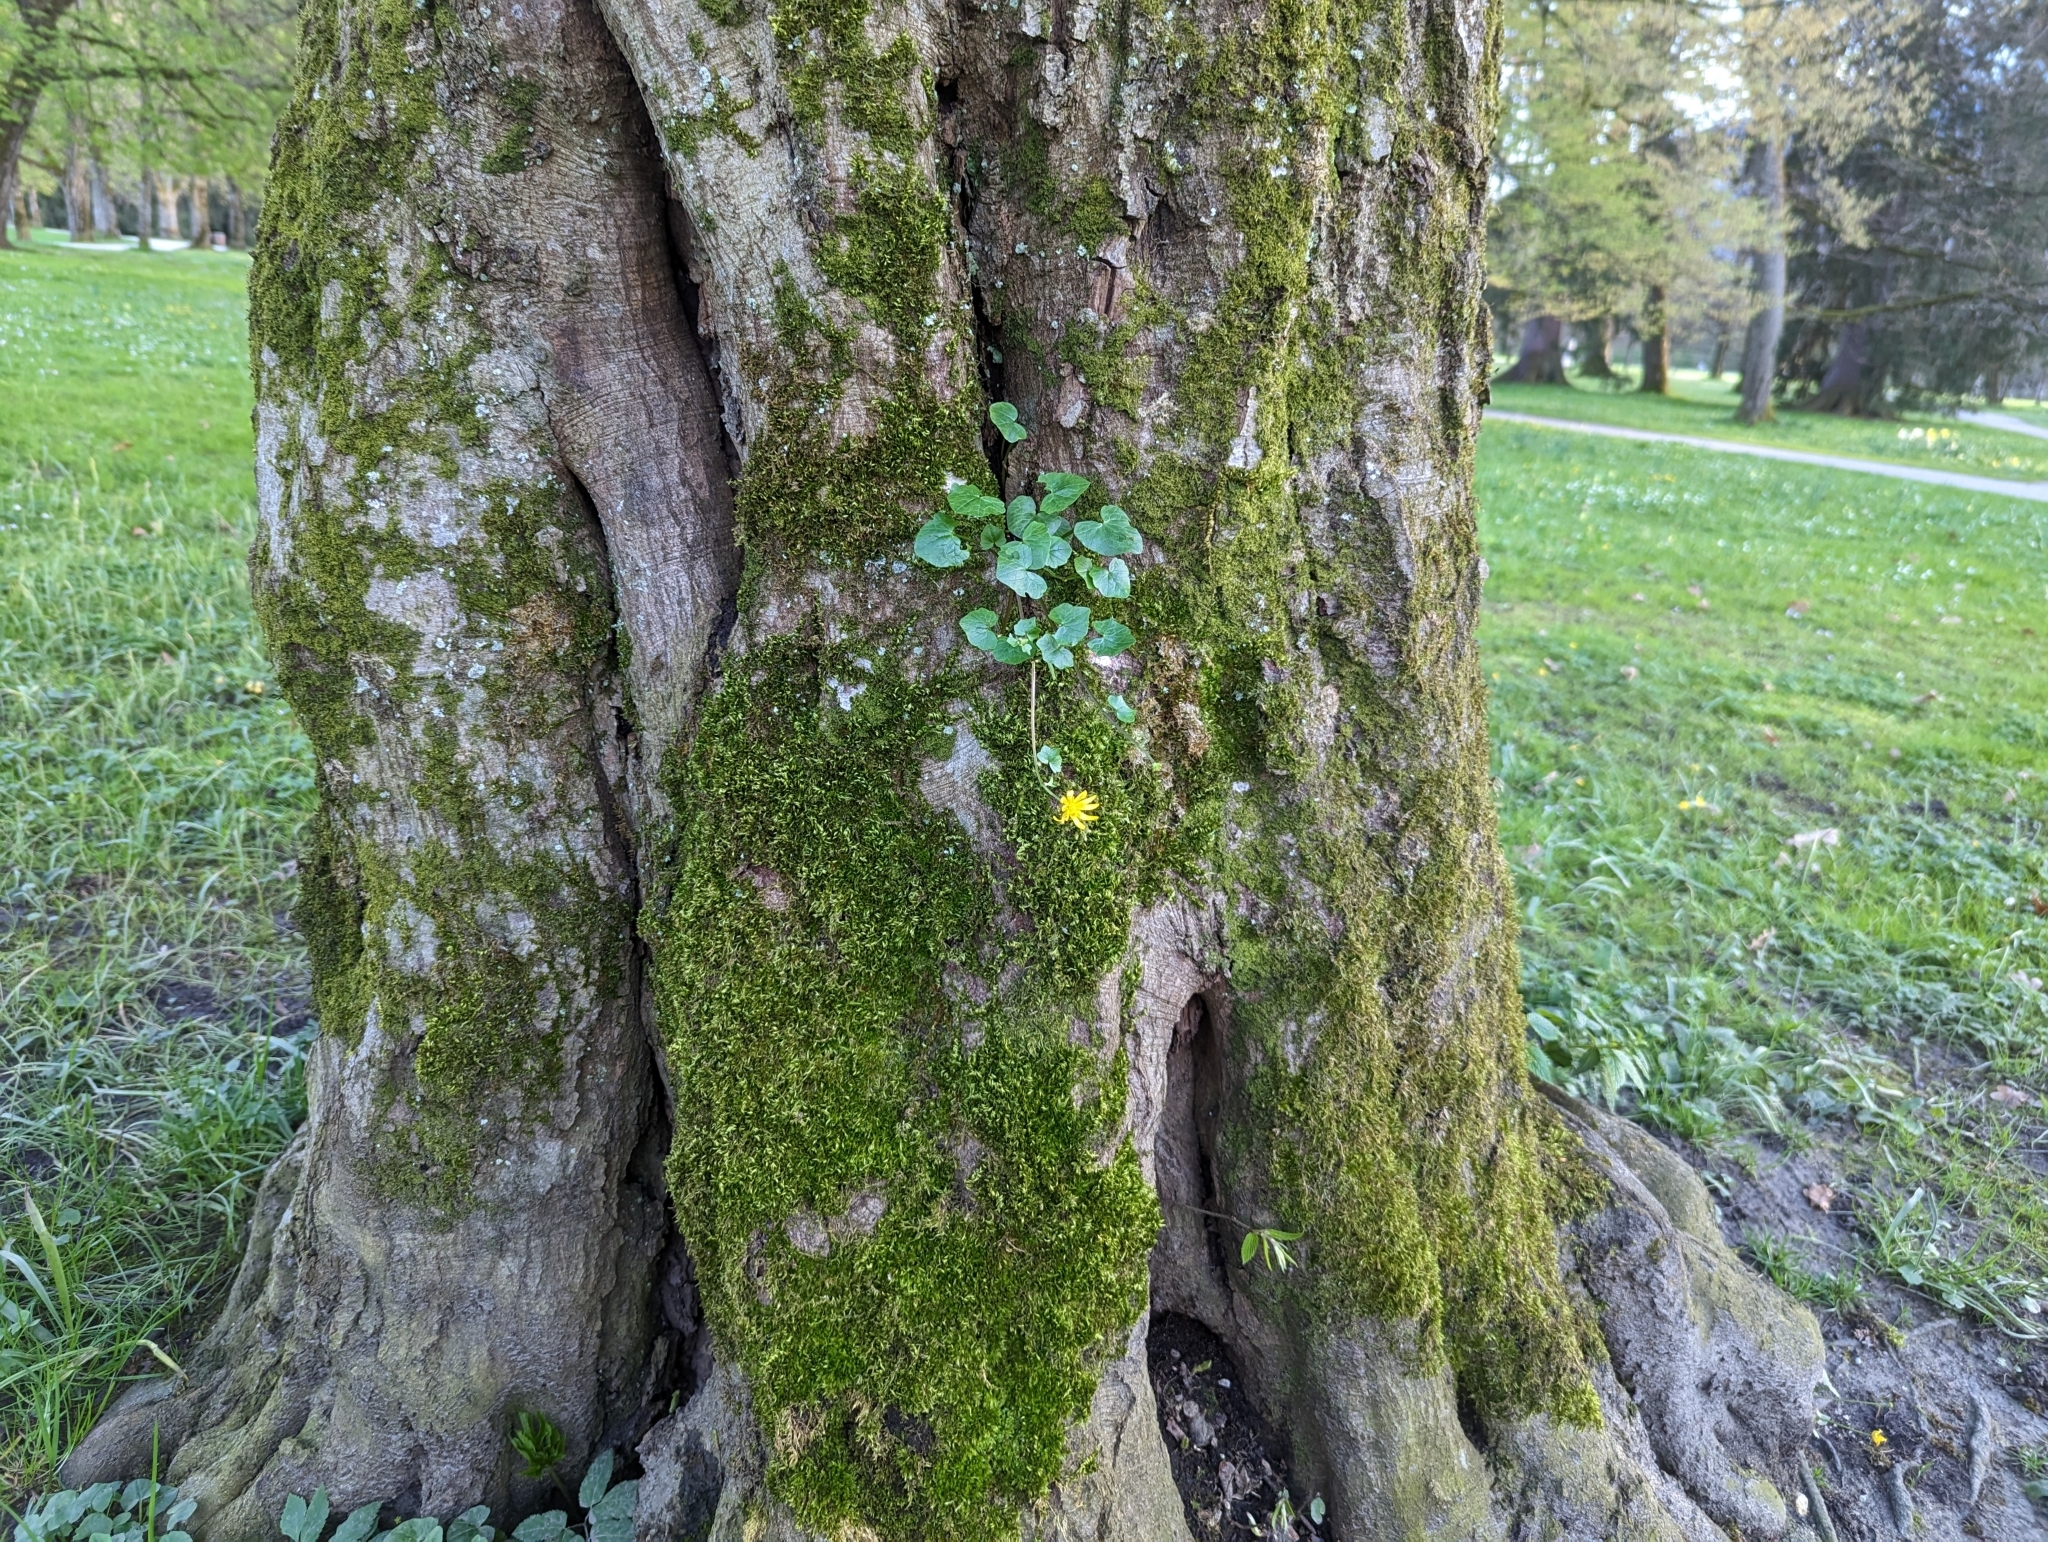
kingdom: Plantae
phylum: Tracheophyta
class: Magnoliopsida
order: Ranunculales
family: Ranunculaceae
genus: Ficaria
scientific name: Ficaria verna
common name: Lesser celandine
